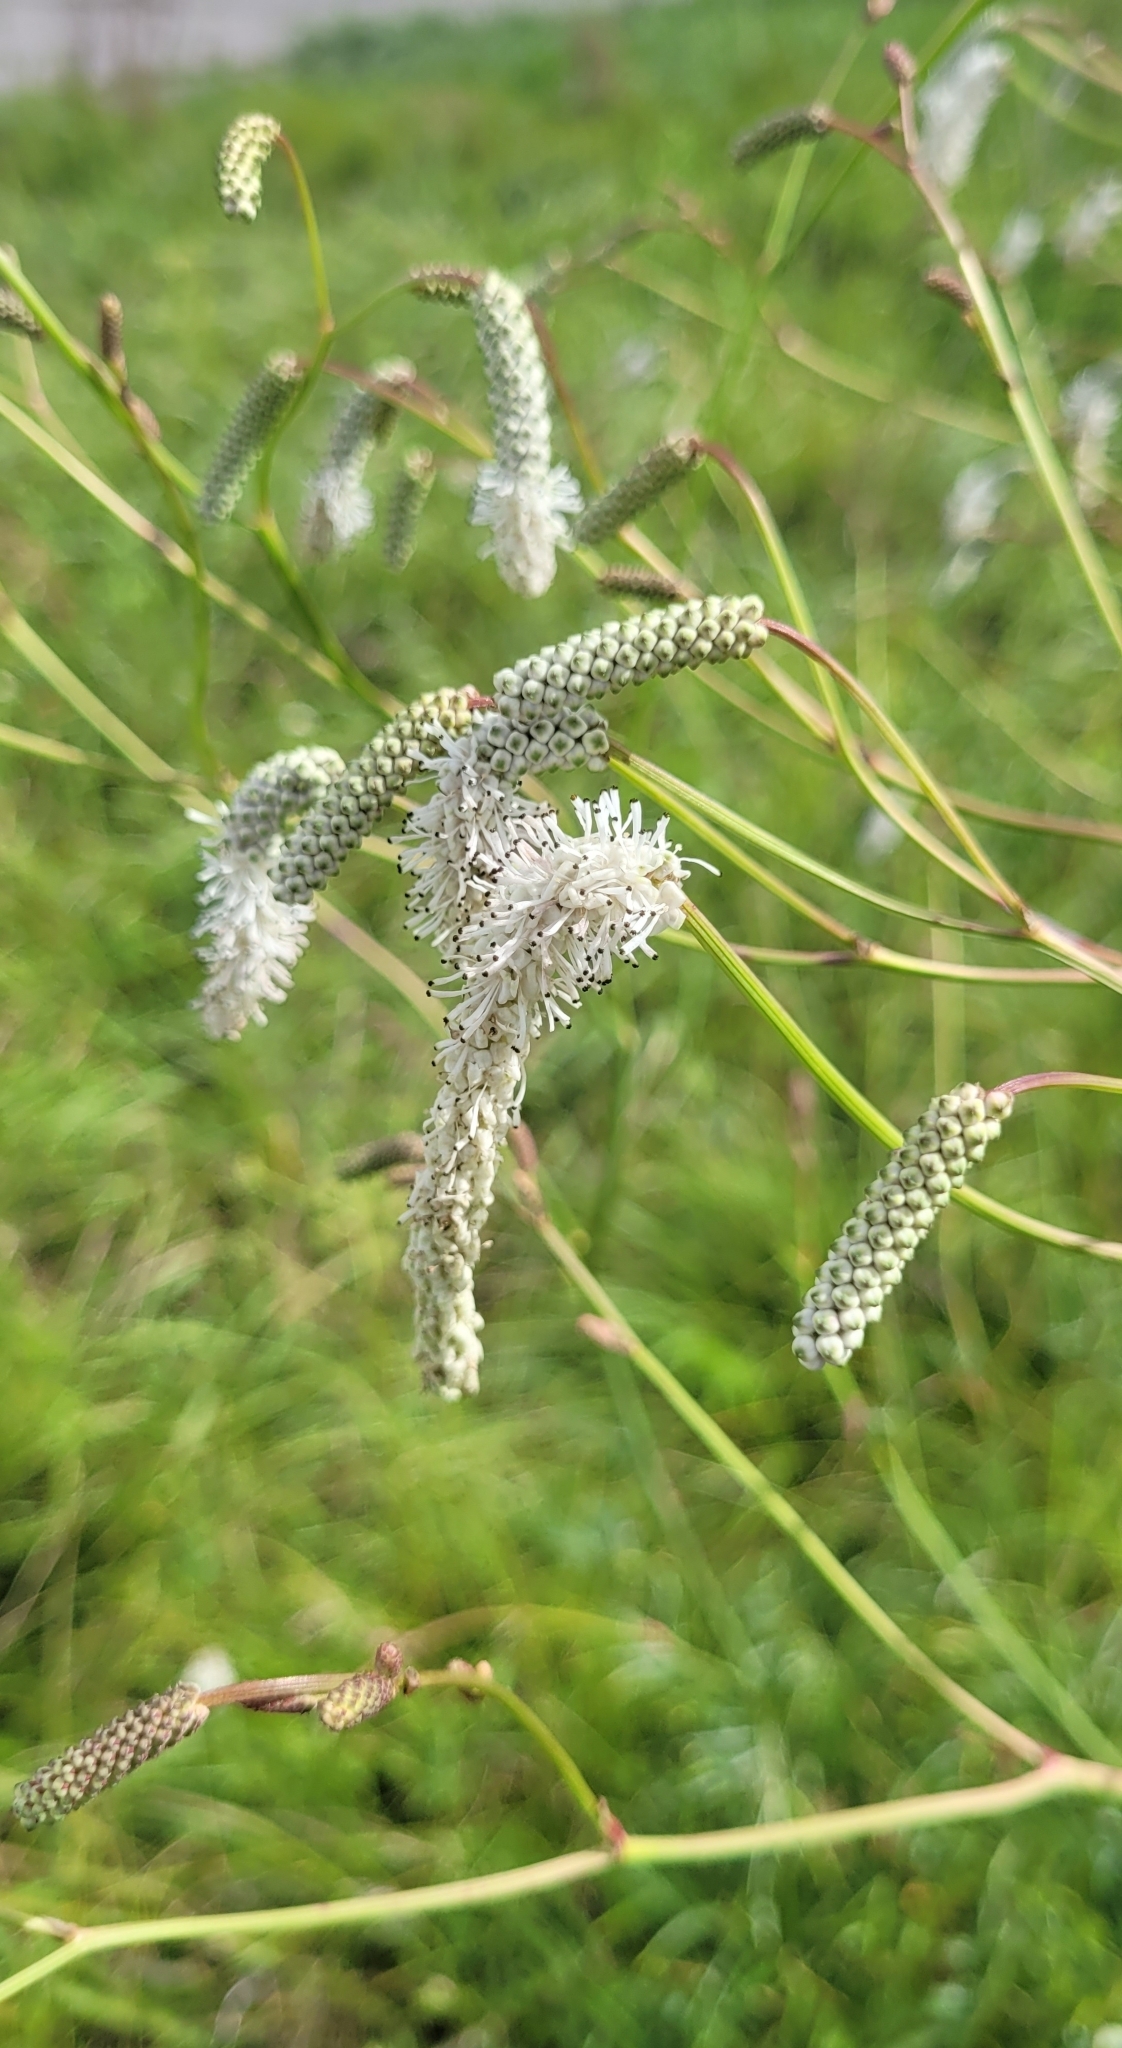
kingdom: Plantae
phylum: Tracheophyta
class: Magnoliopsida
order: Rosales
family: Rosaceae
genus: Poterium
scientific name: Poterium tenuifolium
